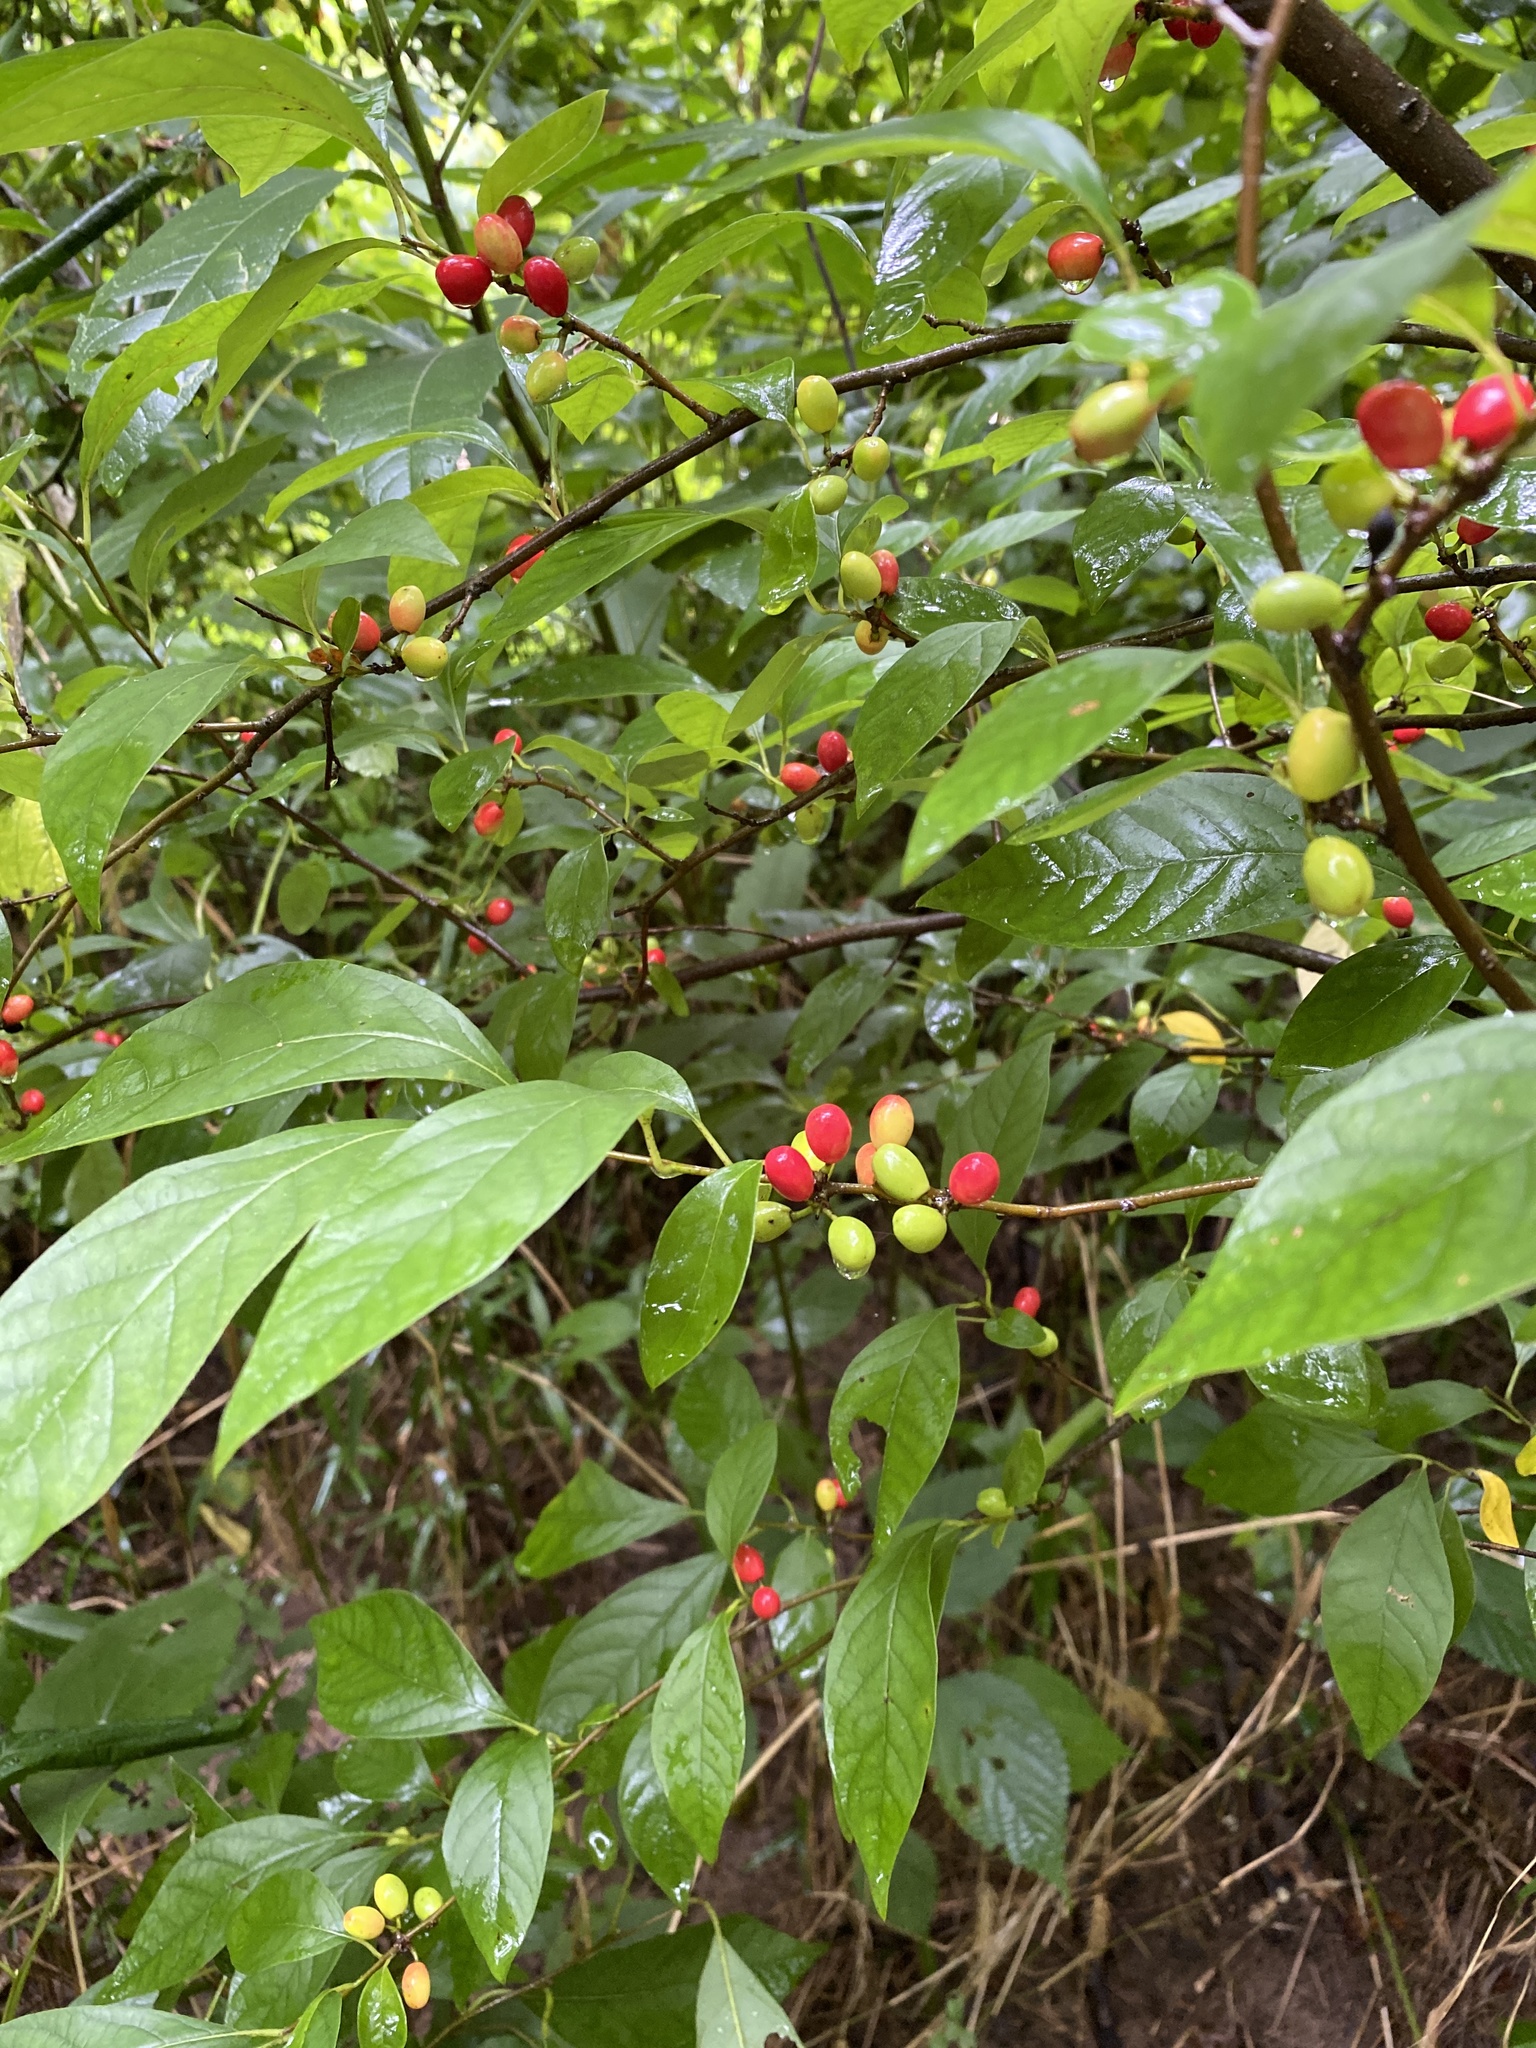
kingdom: Plantae
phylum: Tracheophyta
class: Magnoliopsida
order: Laurales
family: Lauraceae
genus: Lindera
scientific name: Lindera benzoin
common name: Spicebush
